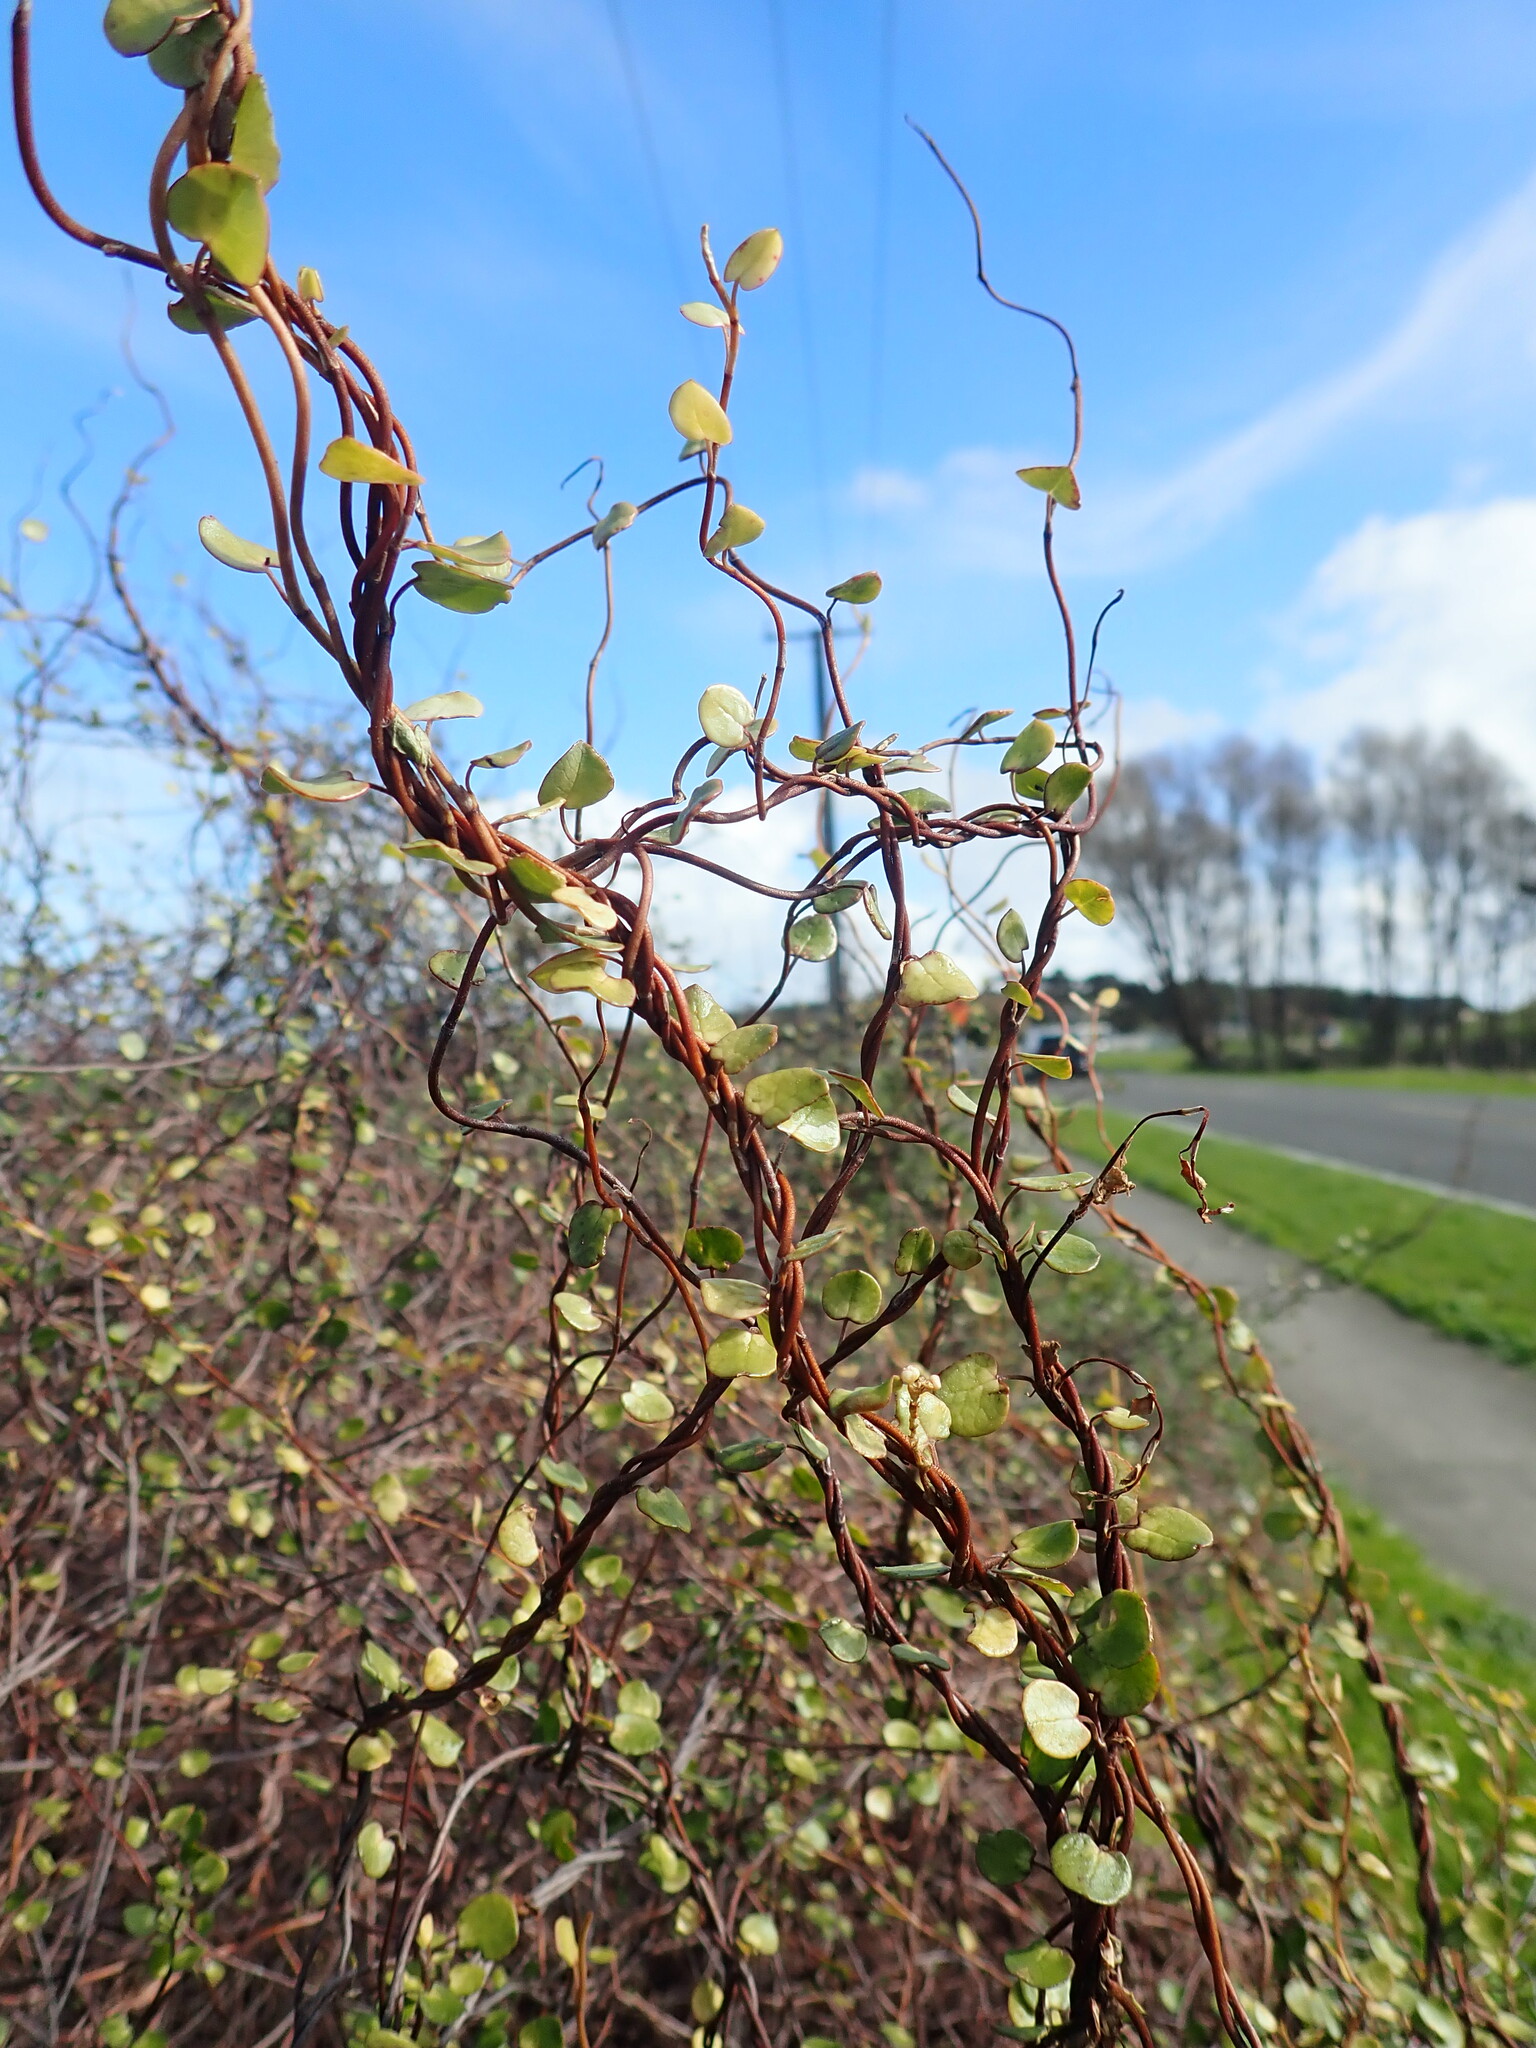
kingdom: Plantae
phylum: Tracheophyta
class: Magnoliopsida
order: Caryophyllales
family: Polygonaceae
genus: Muehlenbeckia
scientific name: Muehlenbeckia complexa
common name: Wireplant
